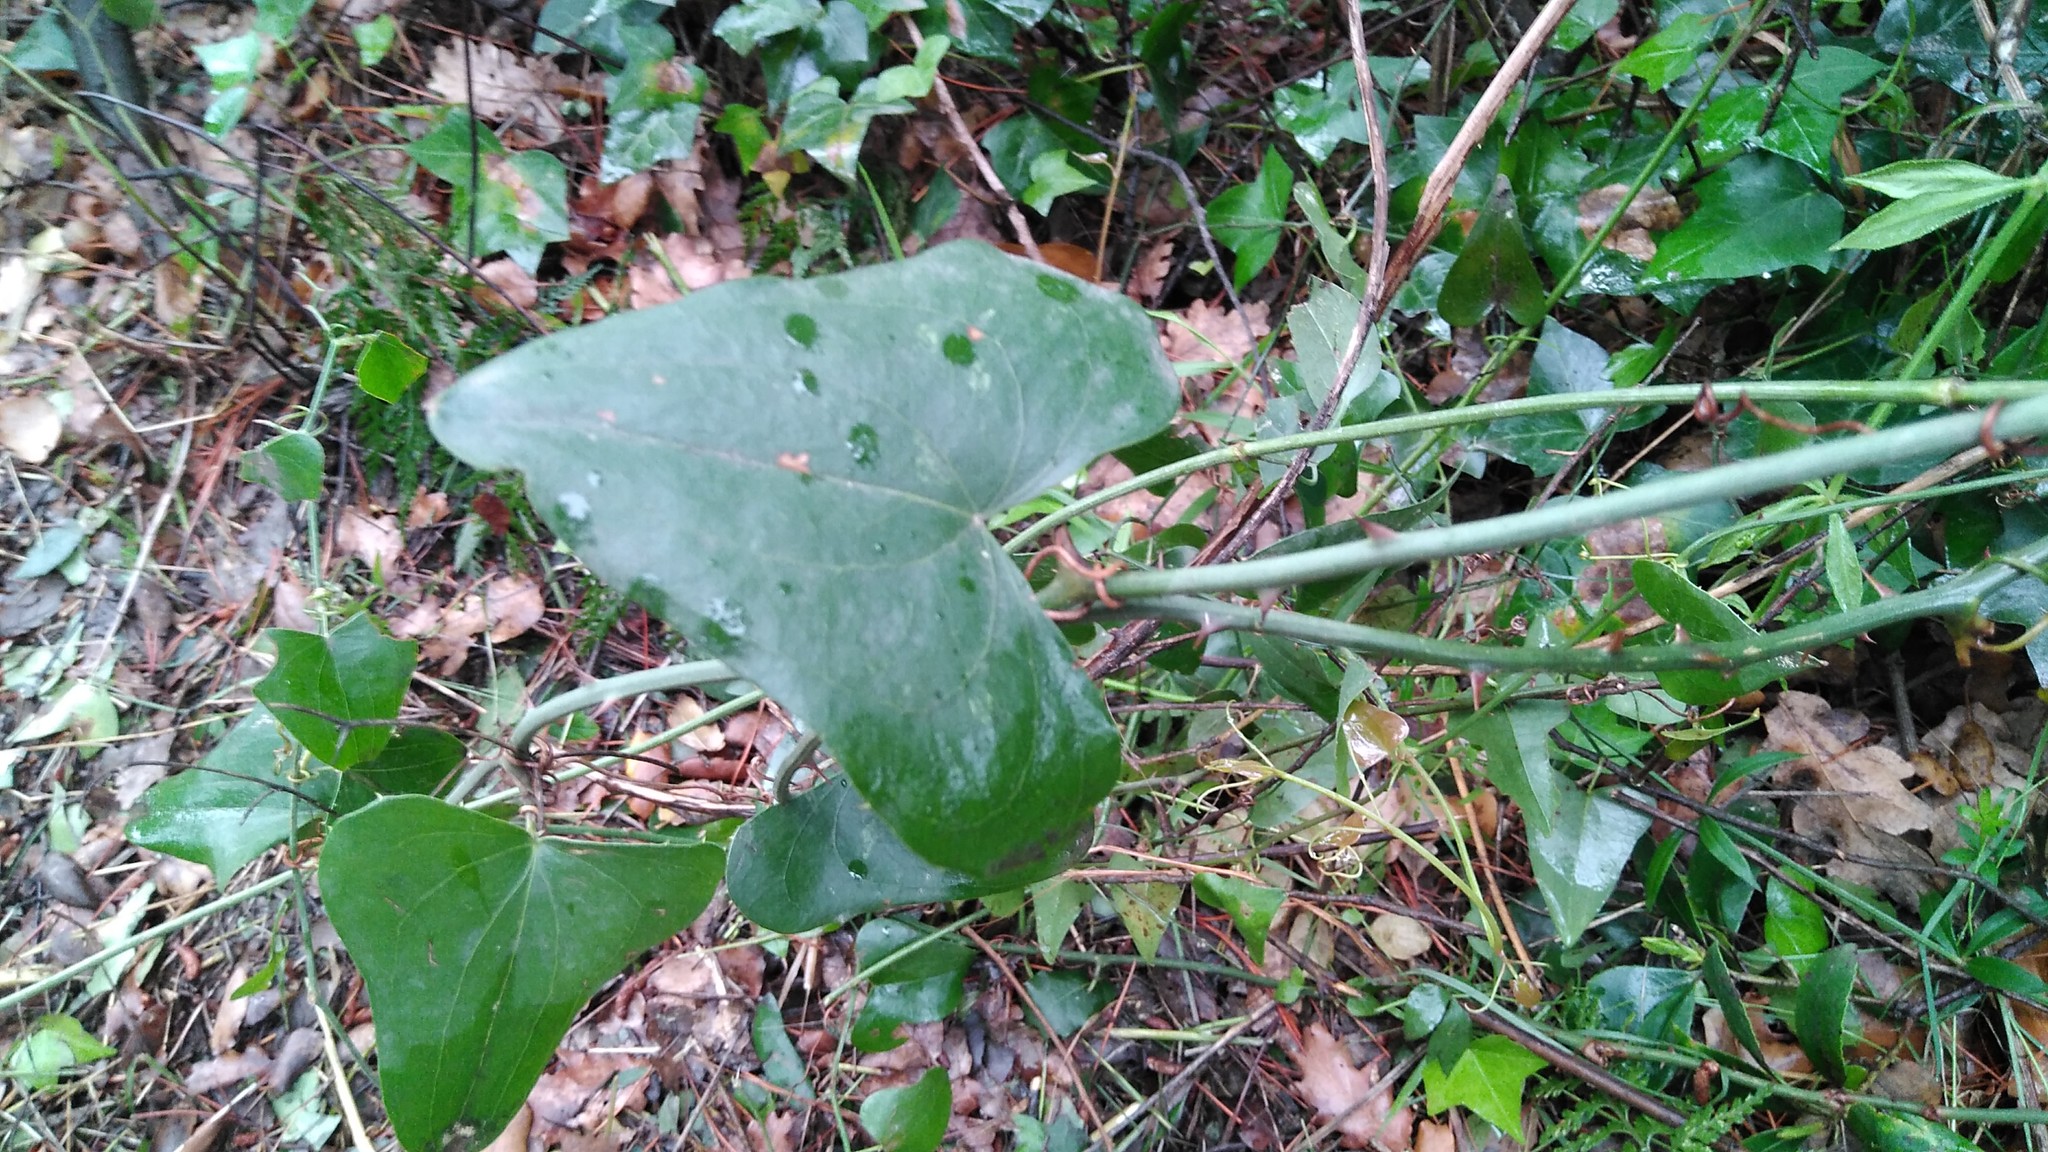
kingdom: Plantae
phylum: Tracheophyta
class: Liliopsida
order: Liliales
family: Smilacaceae
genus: Smilax
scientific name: Smilax aspera
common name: Common smilax
